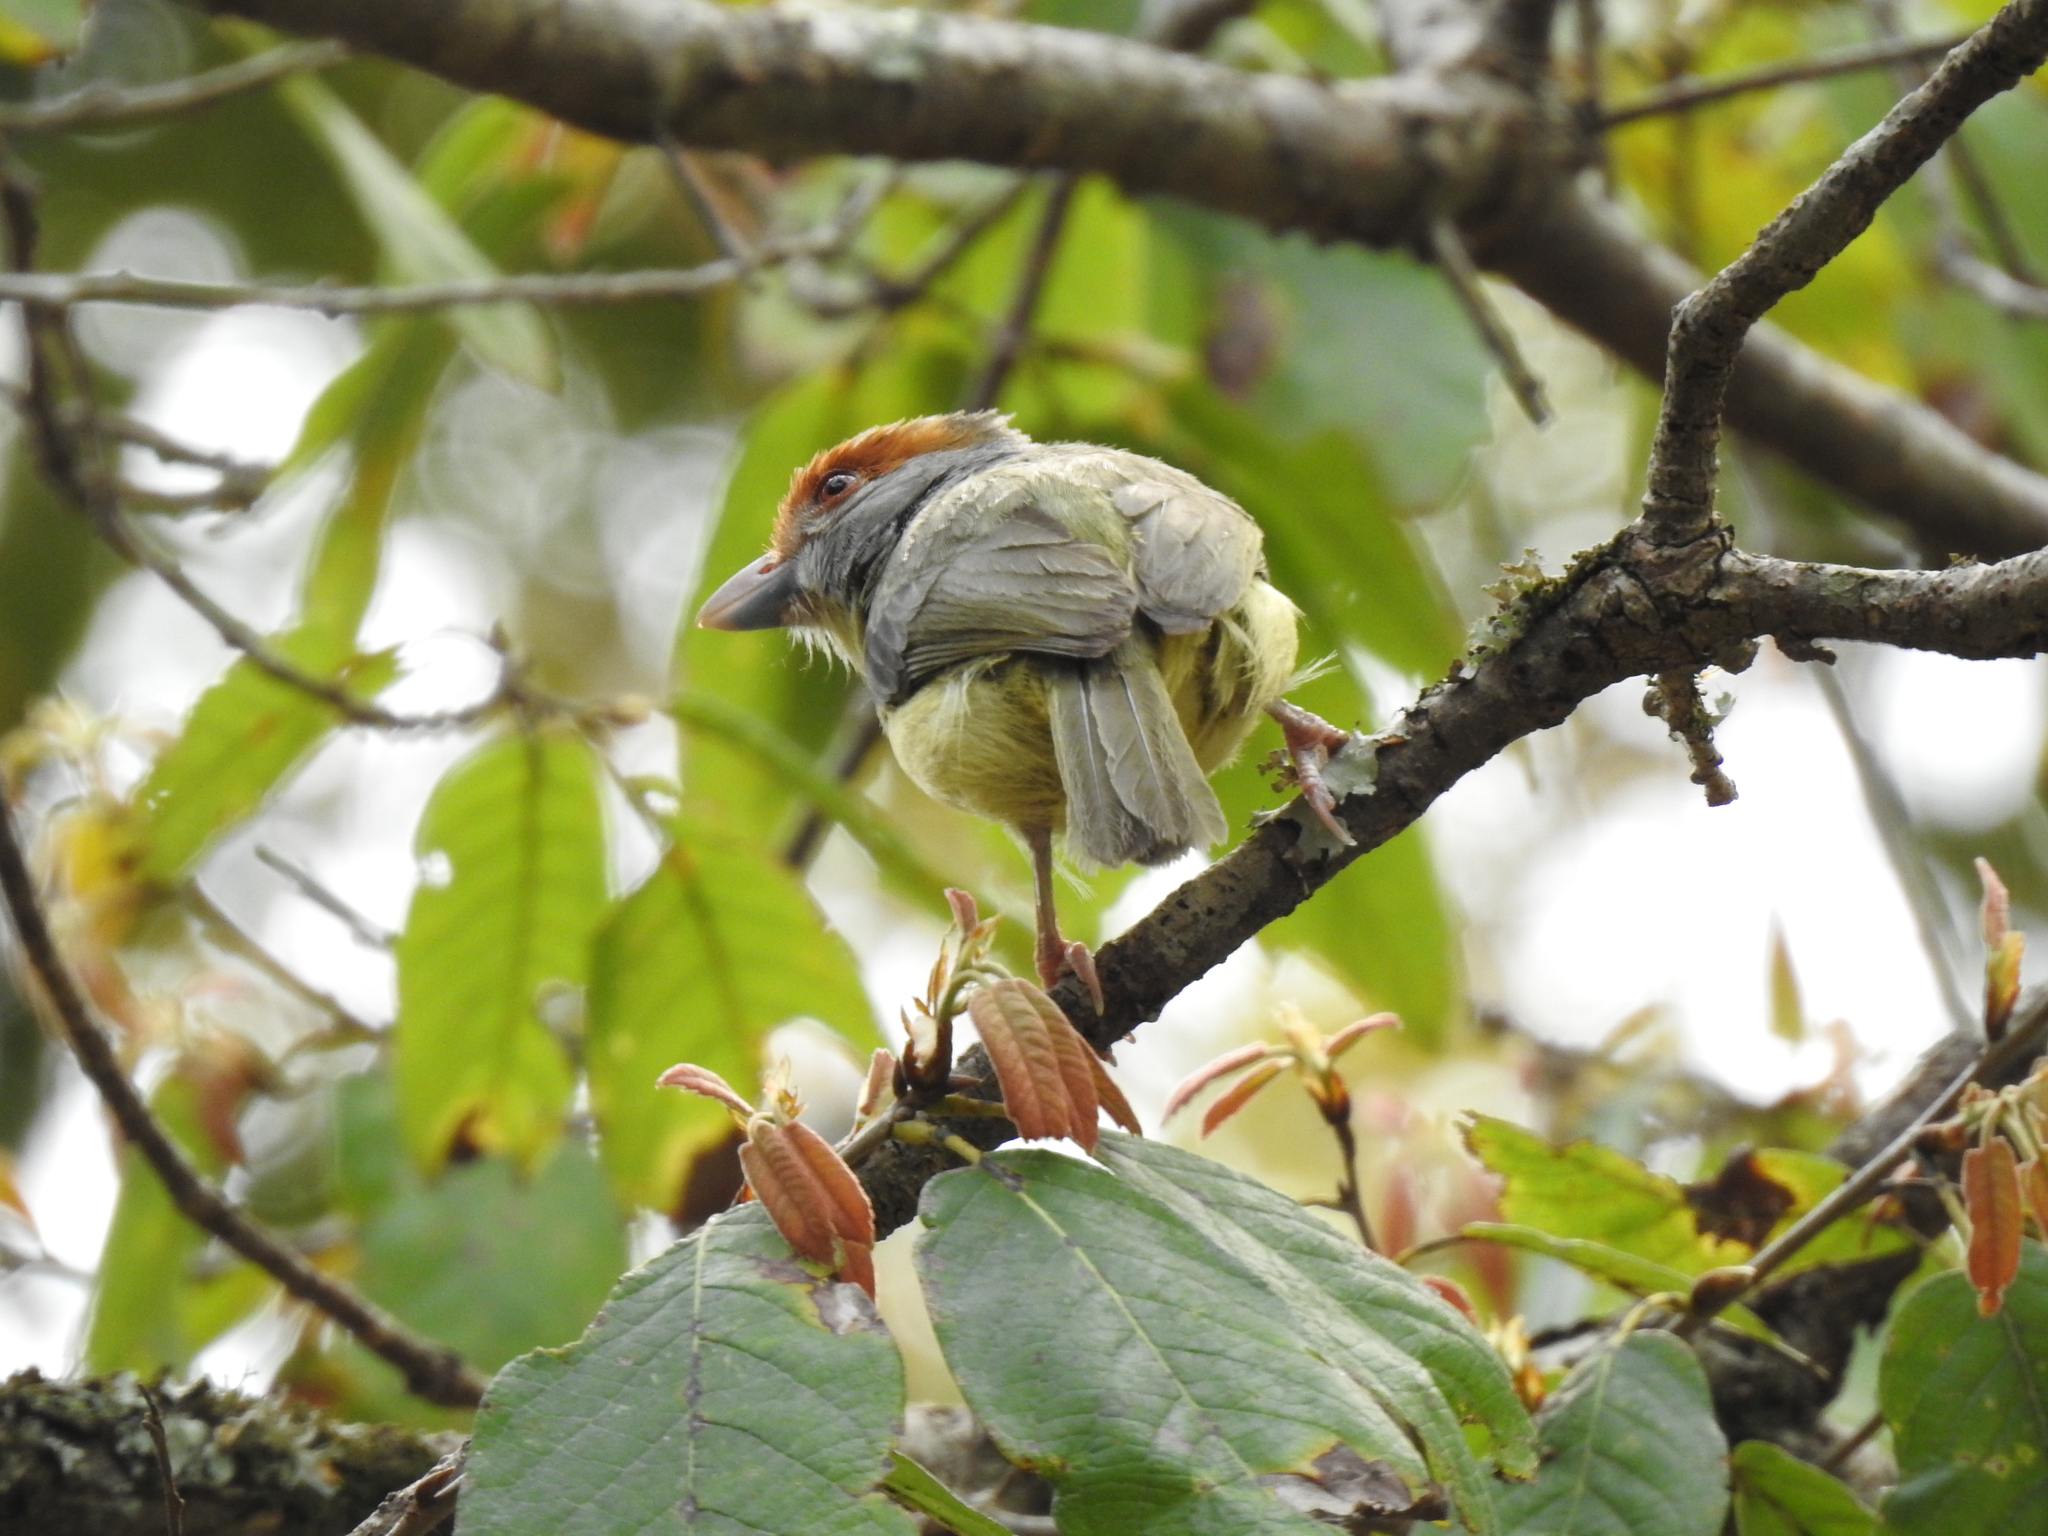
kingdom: Animalia
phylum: Chordata
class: Aves
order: Passeriformes
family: Vireonidae
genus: Cyclarhis
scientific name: Cyclarhis gujanensis
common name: Rufous-browed peppershrike
